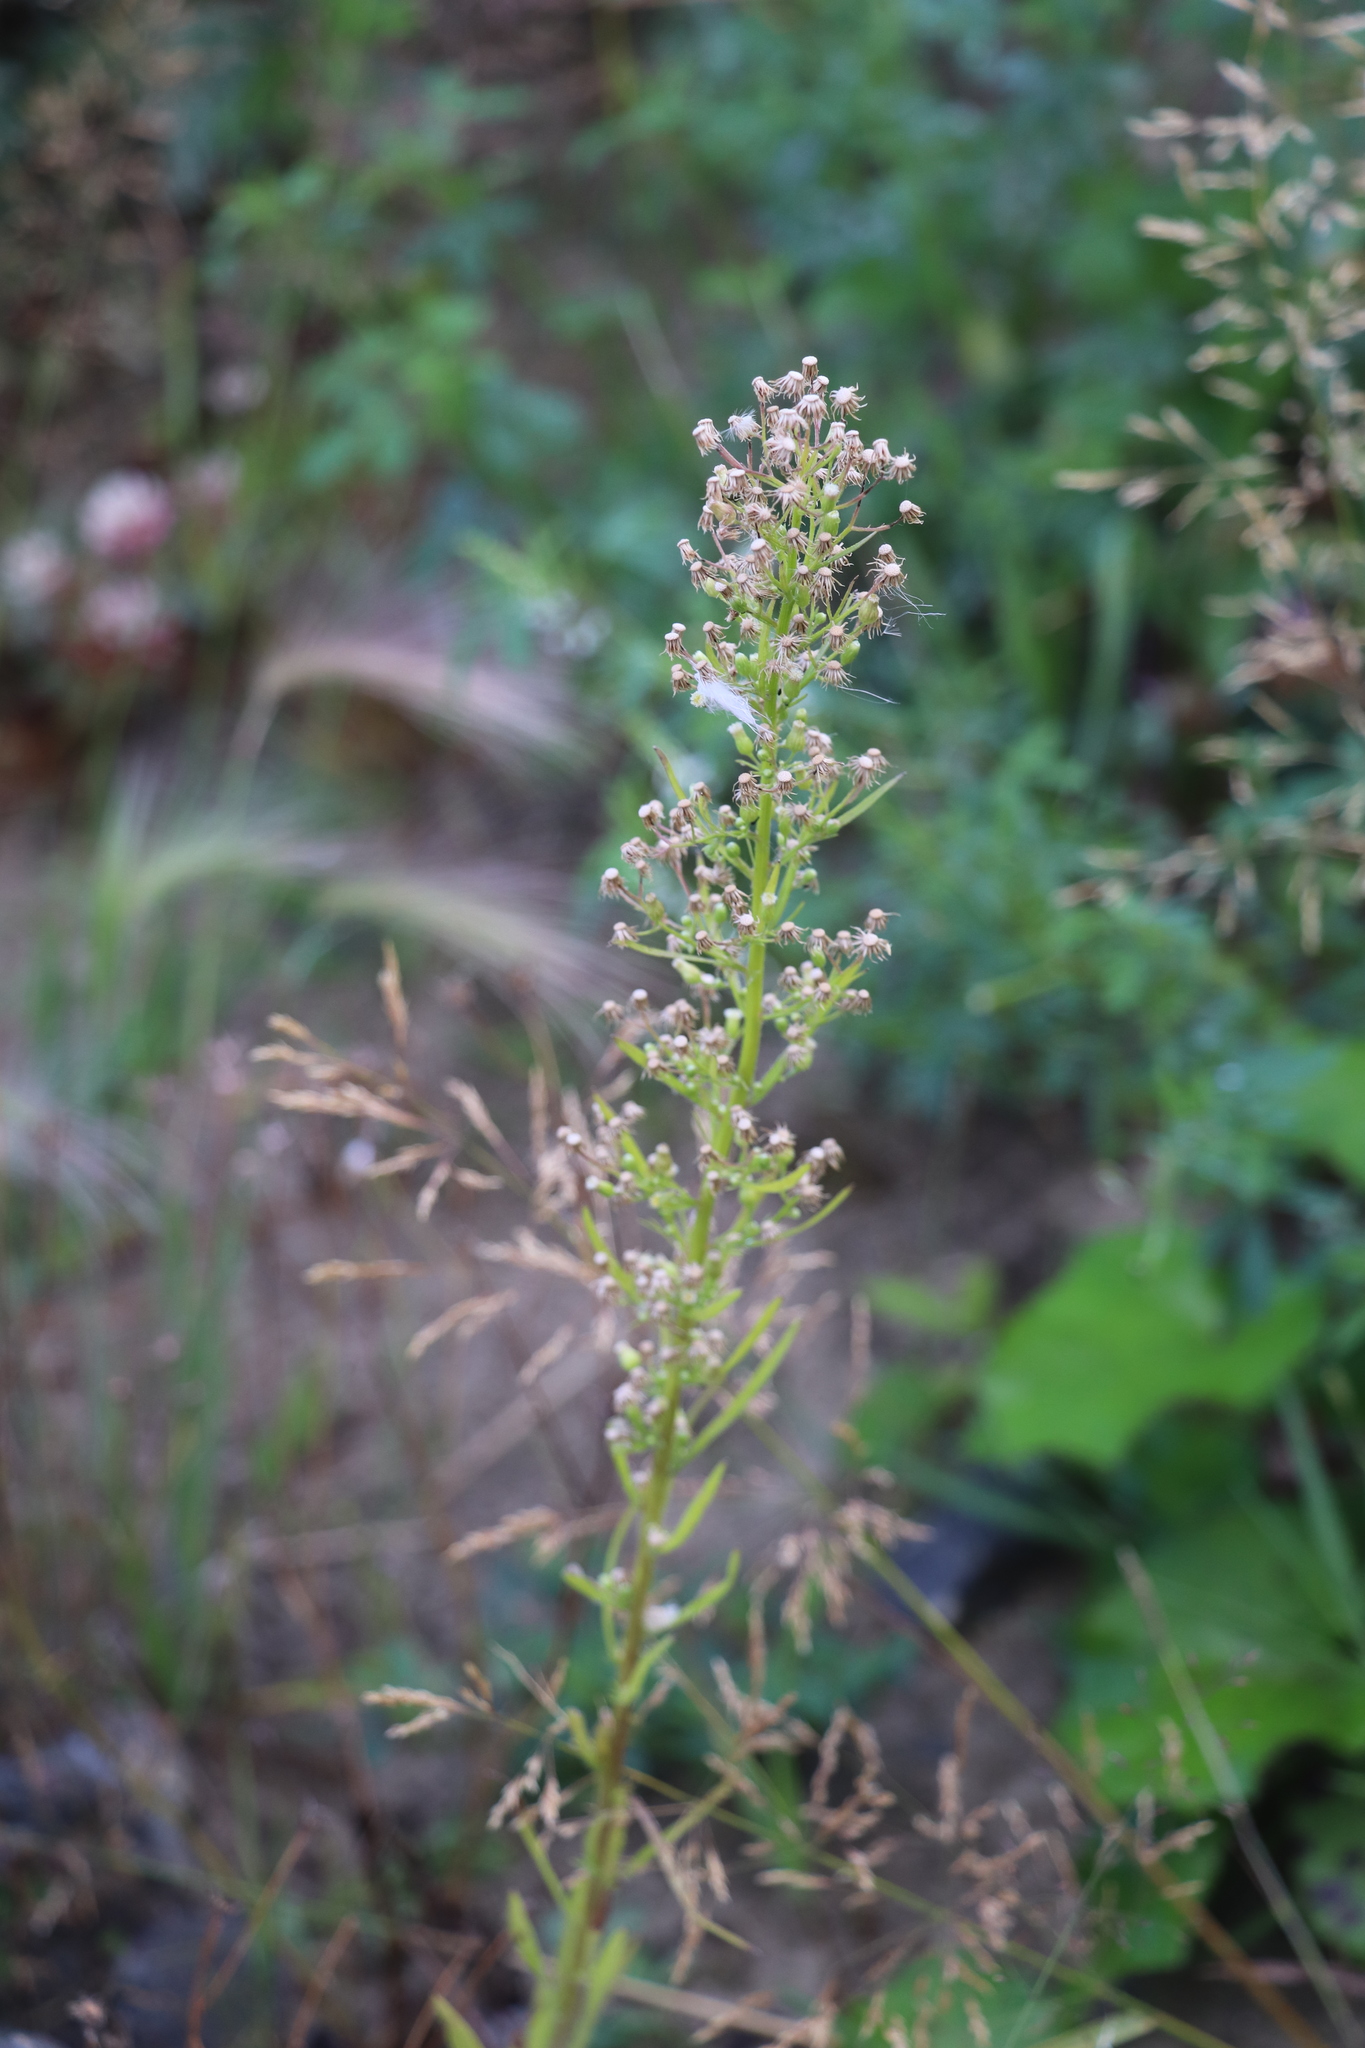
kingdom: Plantae
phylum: Tracheophyta
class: Magnoliopsida
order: Asterales
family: Asteraceae
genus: Erigeron
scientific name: Erigeron canadensis
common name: Canadian fleabane
